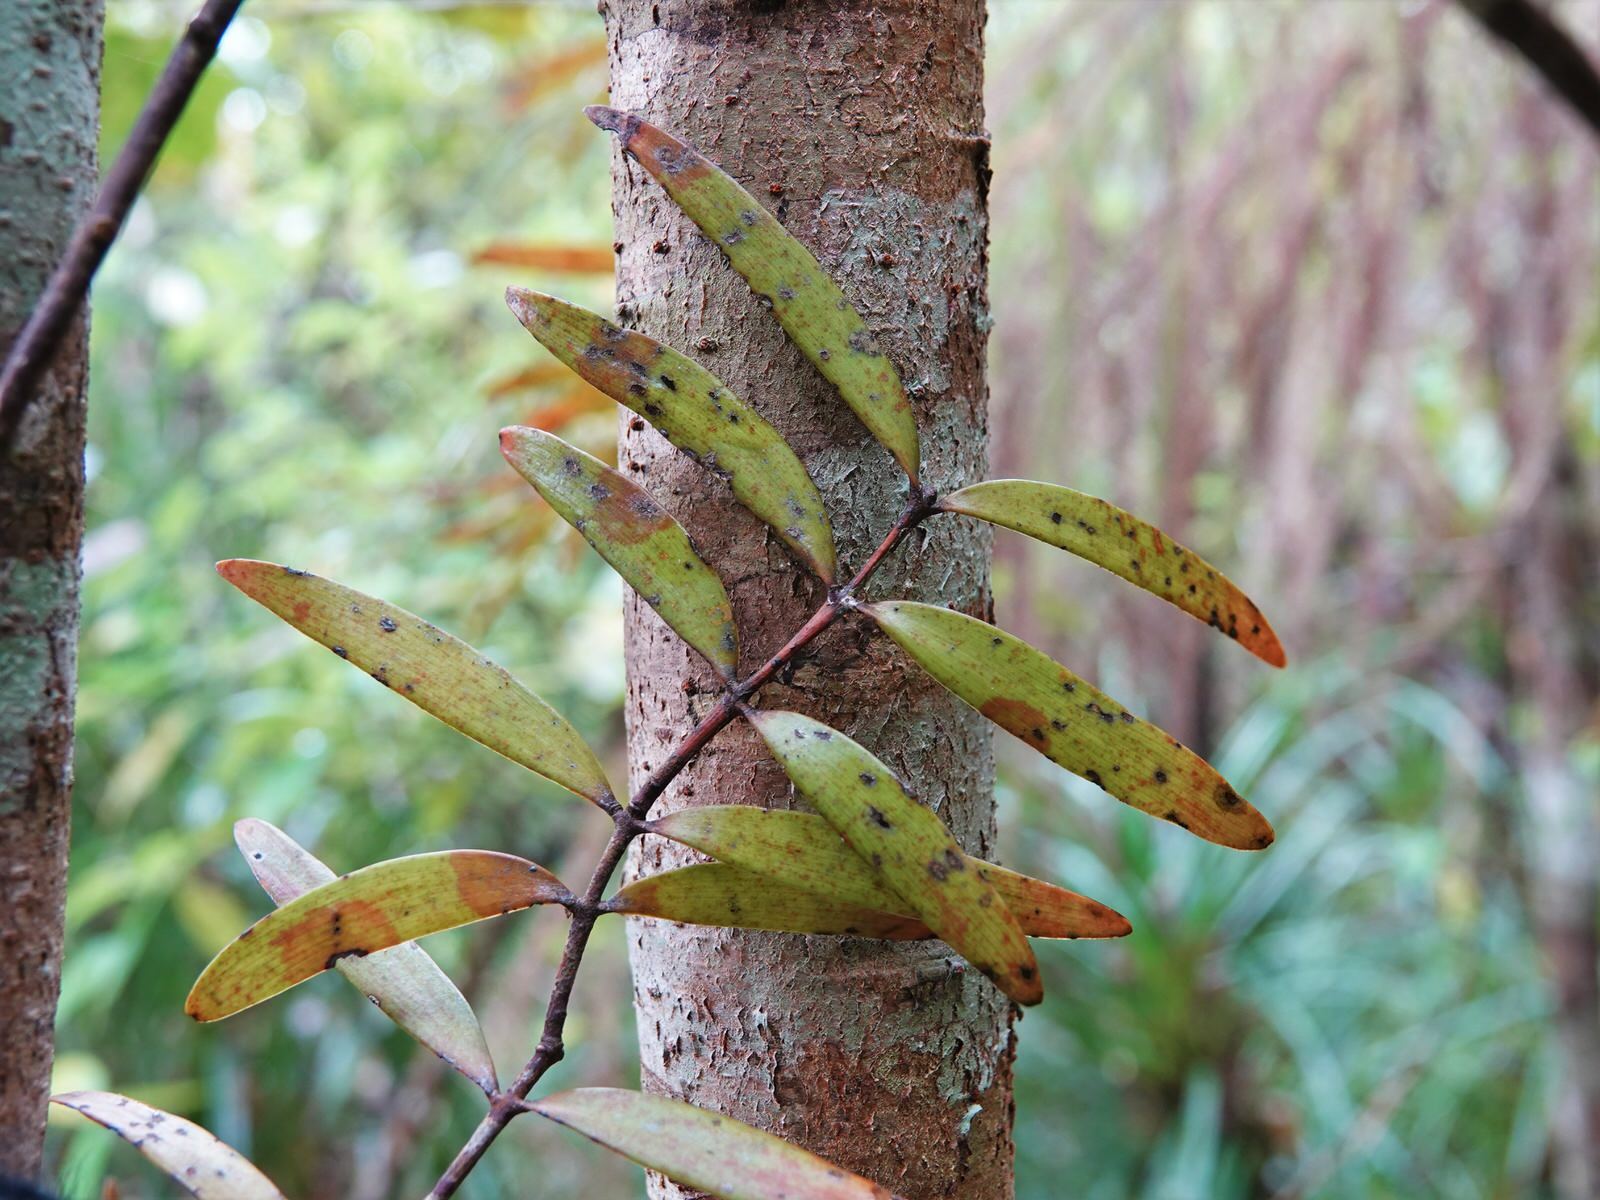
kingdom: Plantae
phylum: Tracheophyta
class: Pinopsida
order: Pinales
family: Araucariaceae
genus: Agathis
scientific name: Agathis australis
